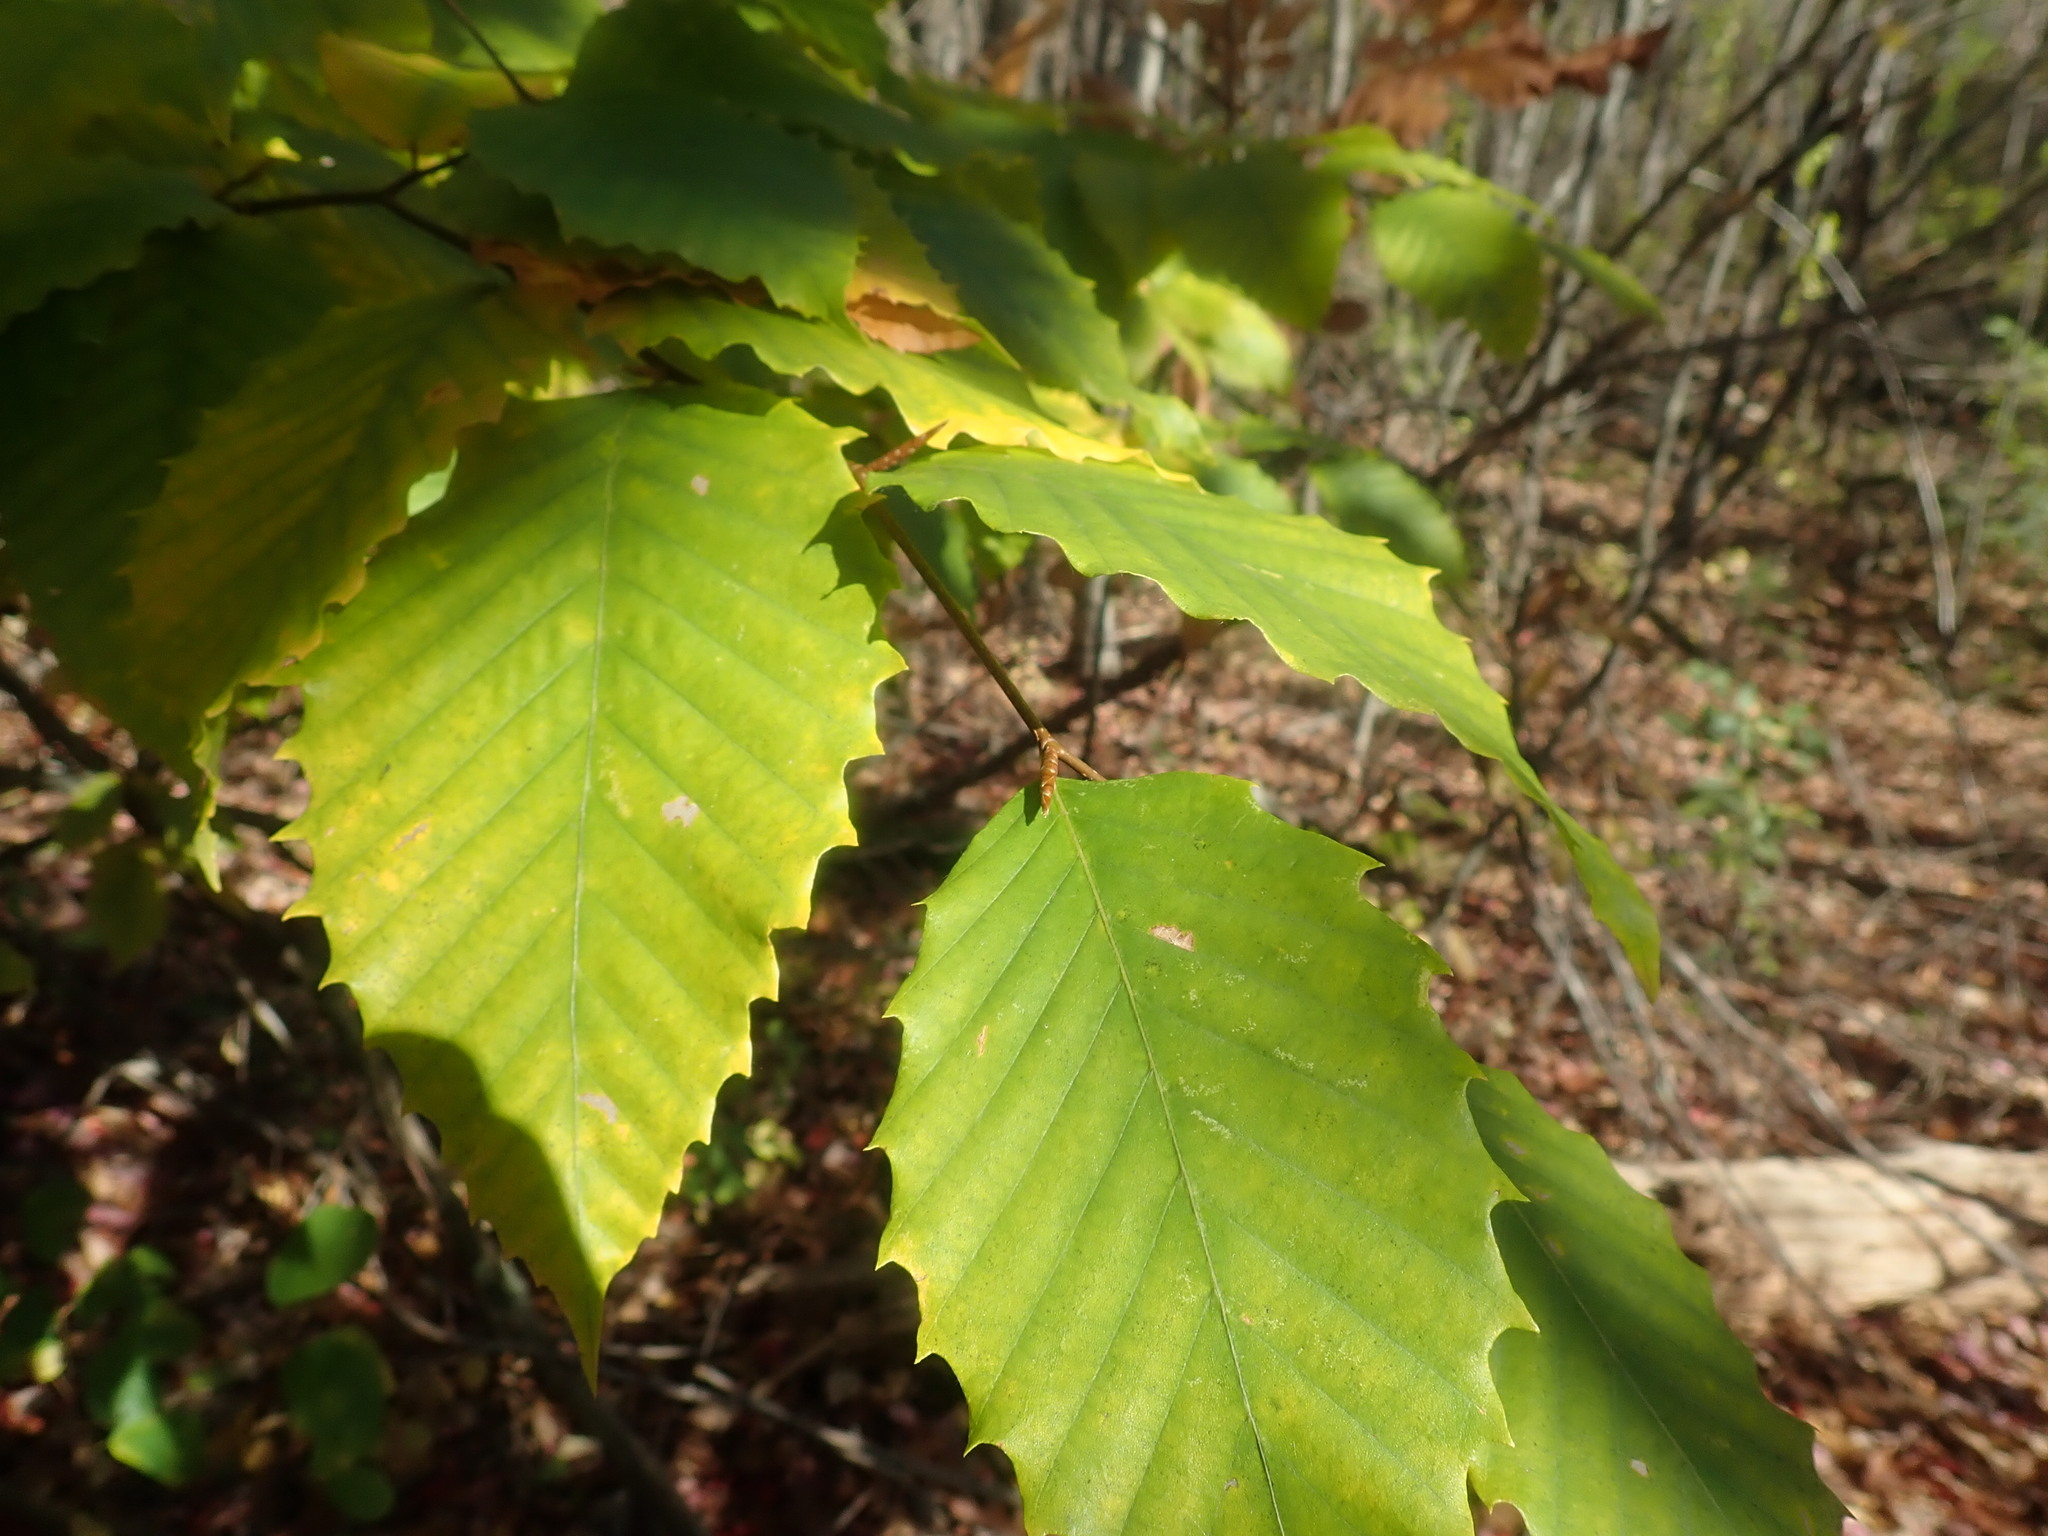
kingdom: Plantae
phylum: Tracheophyta
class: Magnoliopsida
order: Fagales
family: Fagaceae
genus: Fagus
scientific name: Fagus grandifolia
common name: American beech
